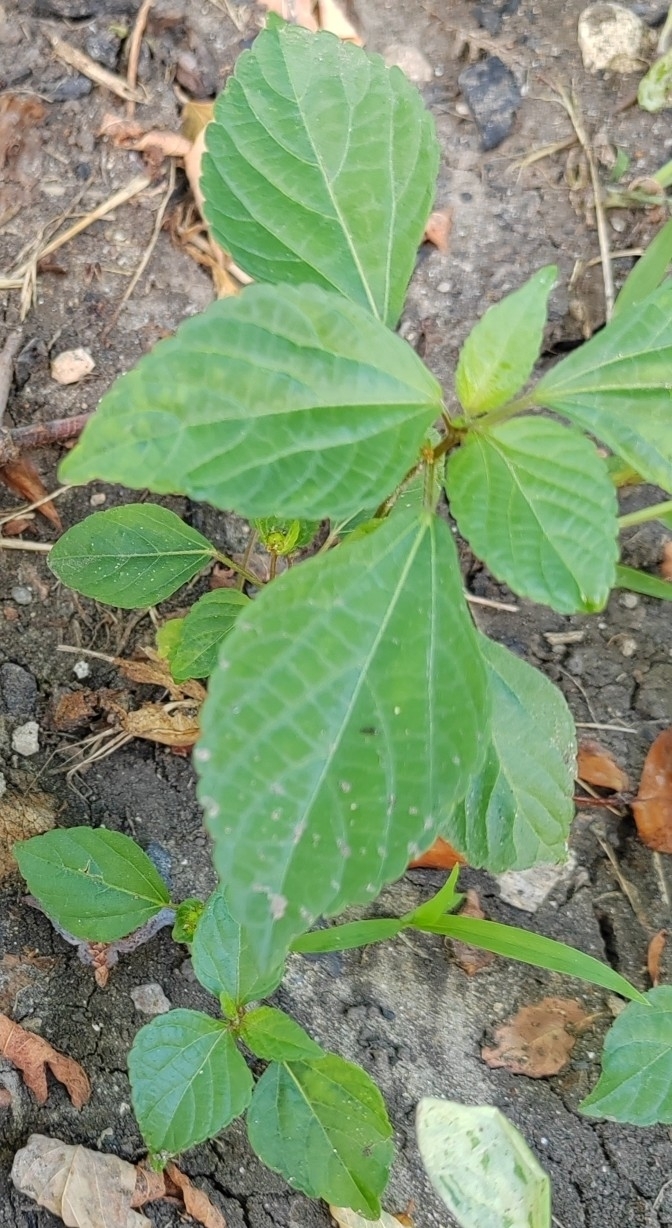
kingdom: Plantae
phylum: Tracheophyta
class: Magnoliopsida
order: Malpighiales
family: Euphorbiaceae
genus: Acalypha
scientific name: Acalypha australis
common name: Asian copperleaf
